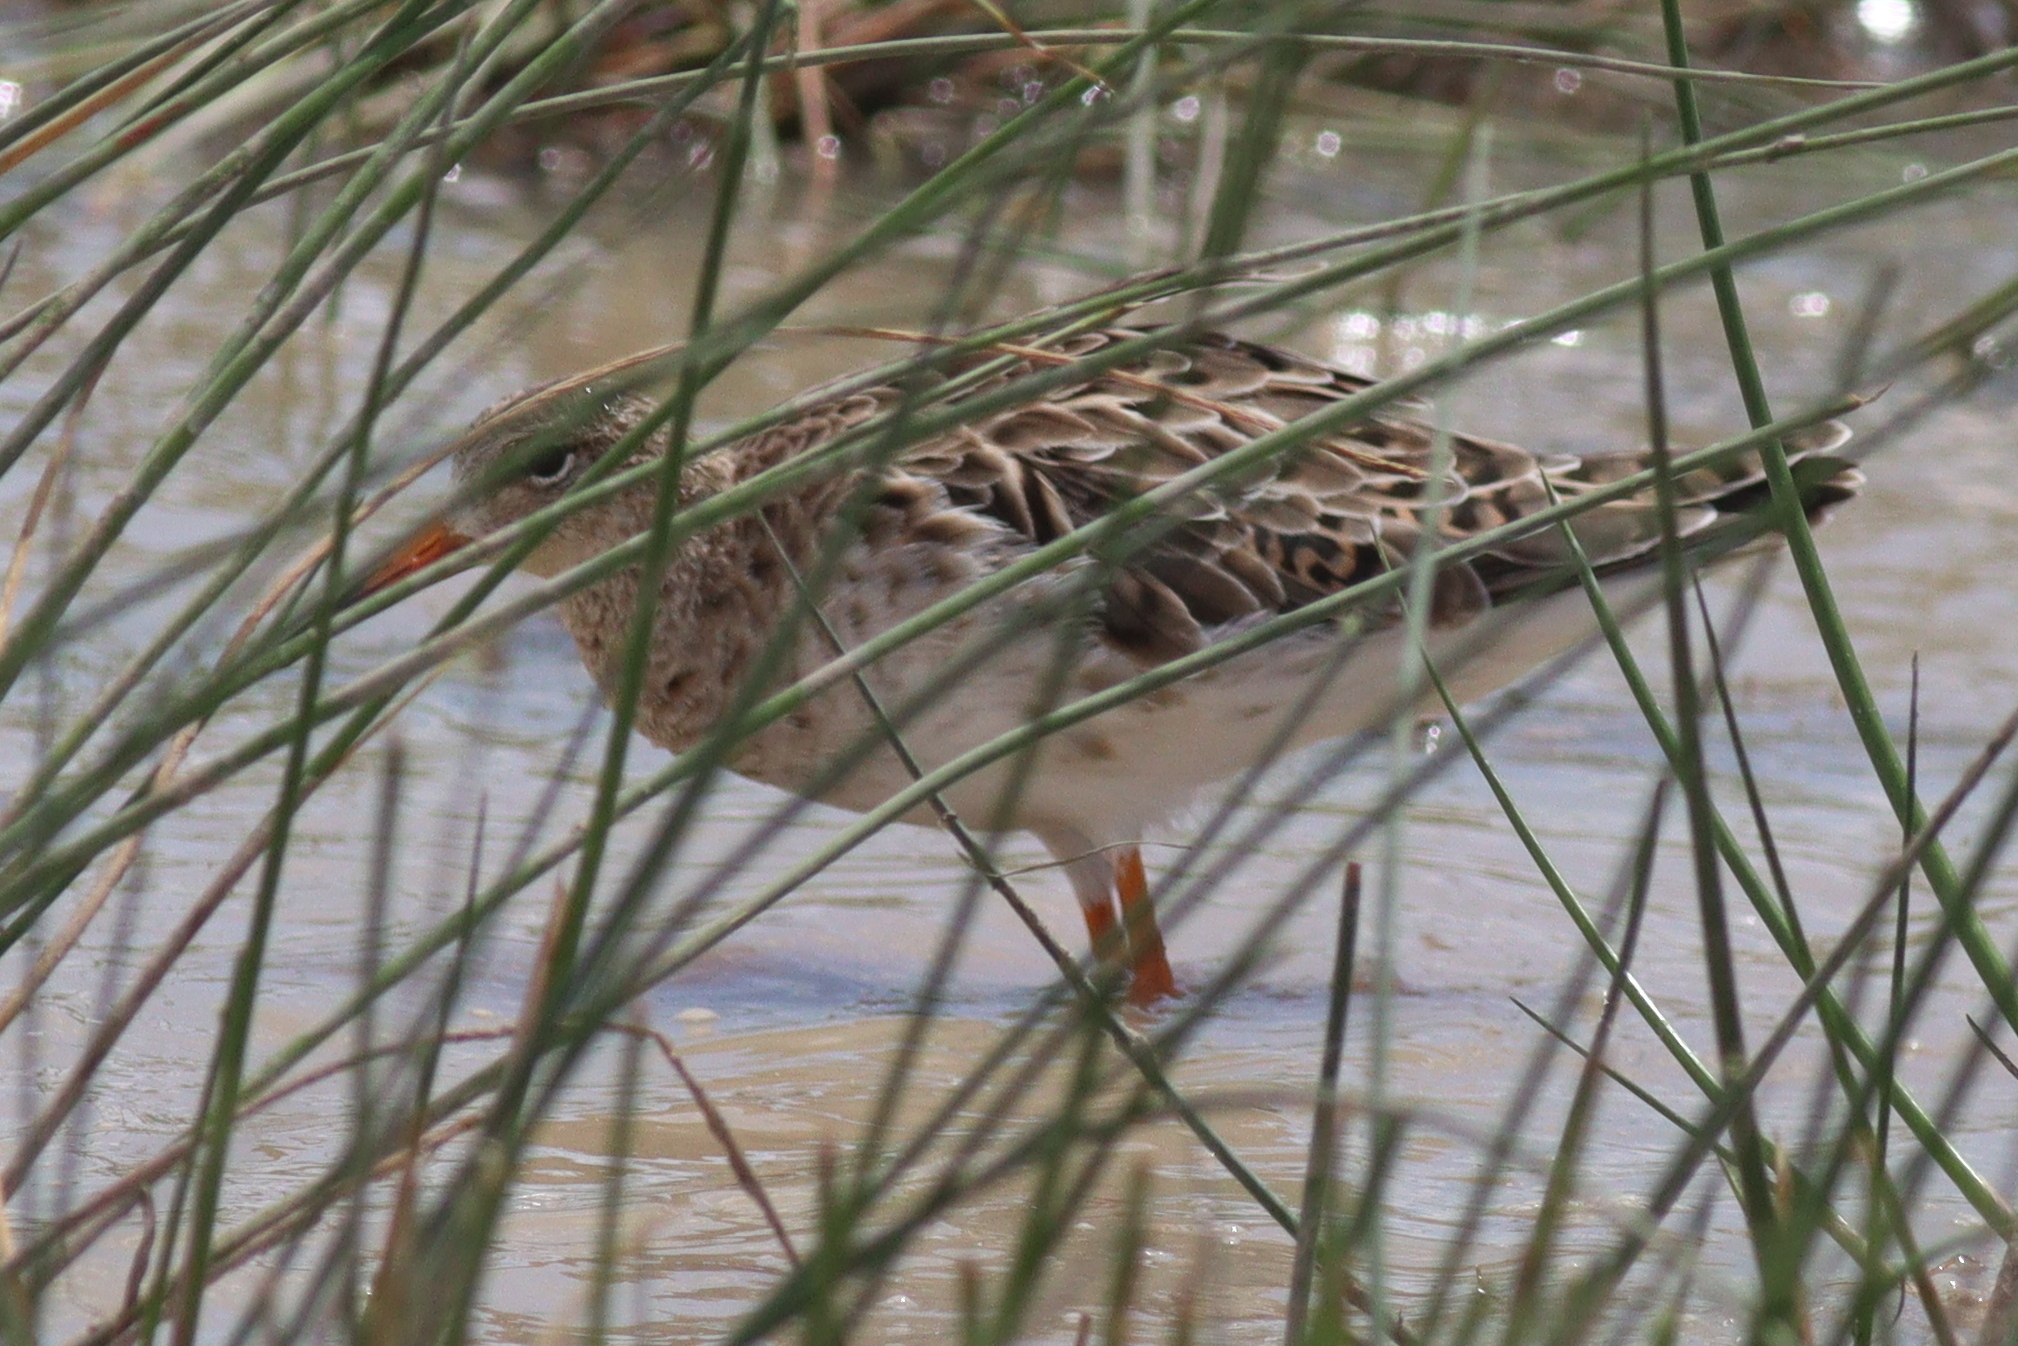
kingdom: Animalia
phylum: Chordata
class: Aves
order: Charadriiformes
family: Scolopacidae
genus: Calidris
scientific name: Calidris pugnax
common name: Ruff
